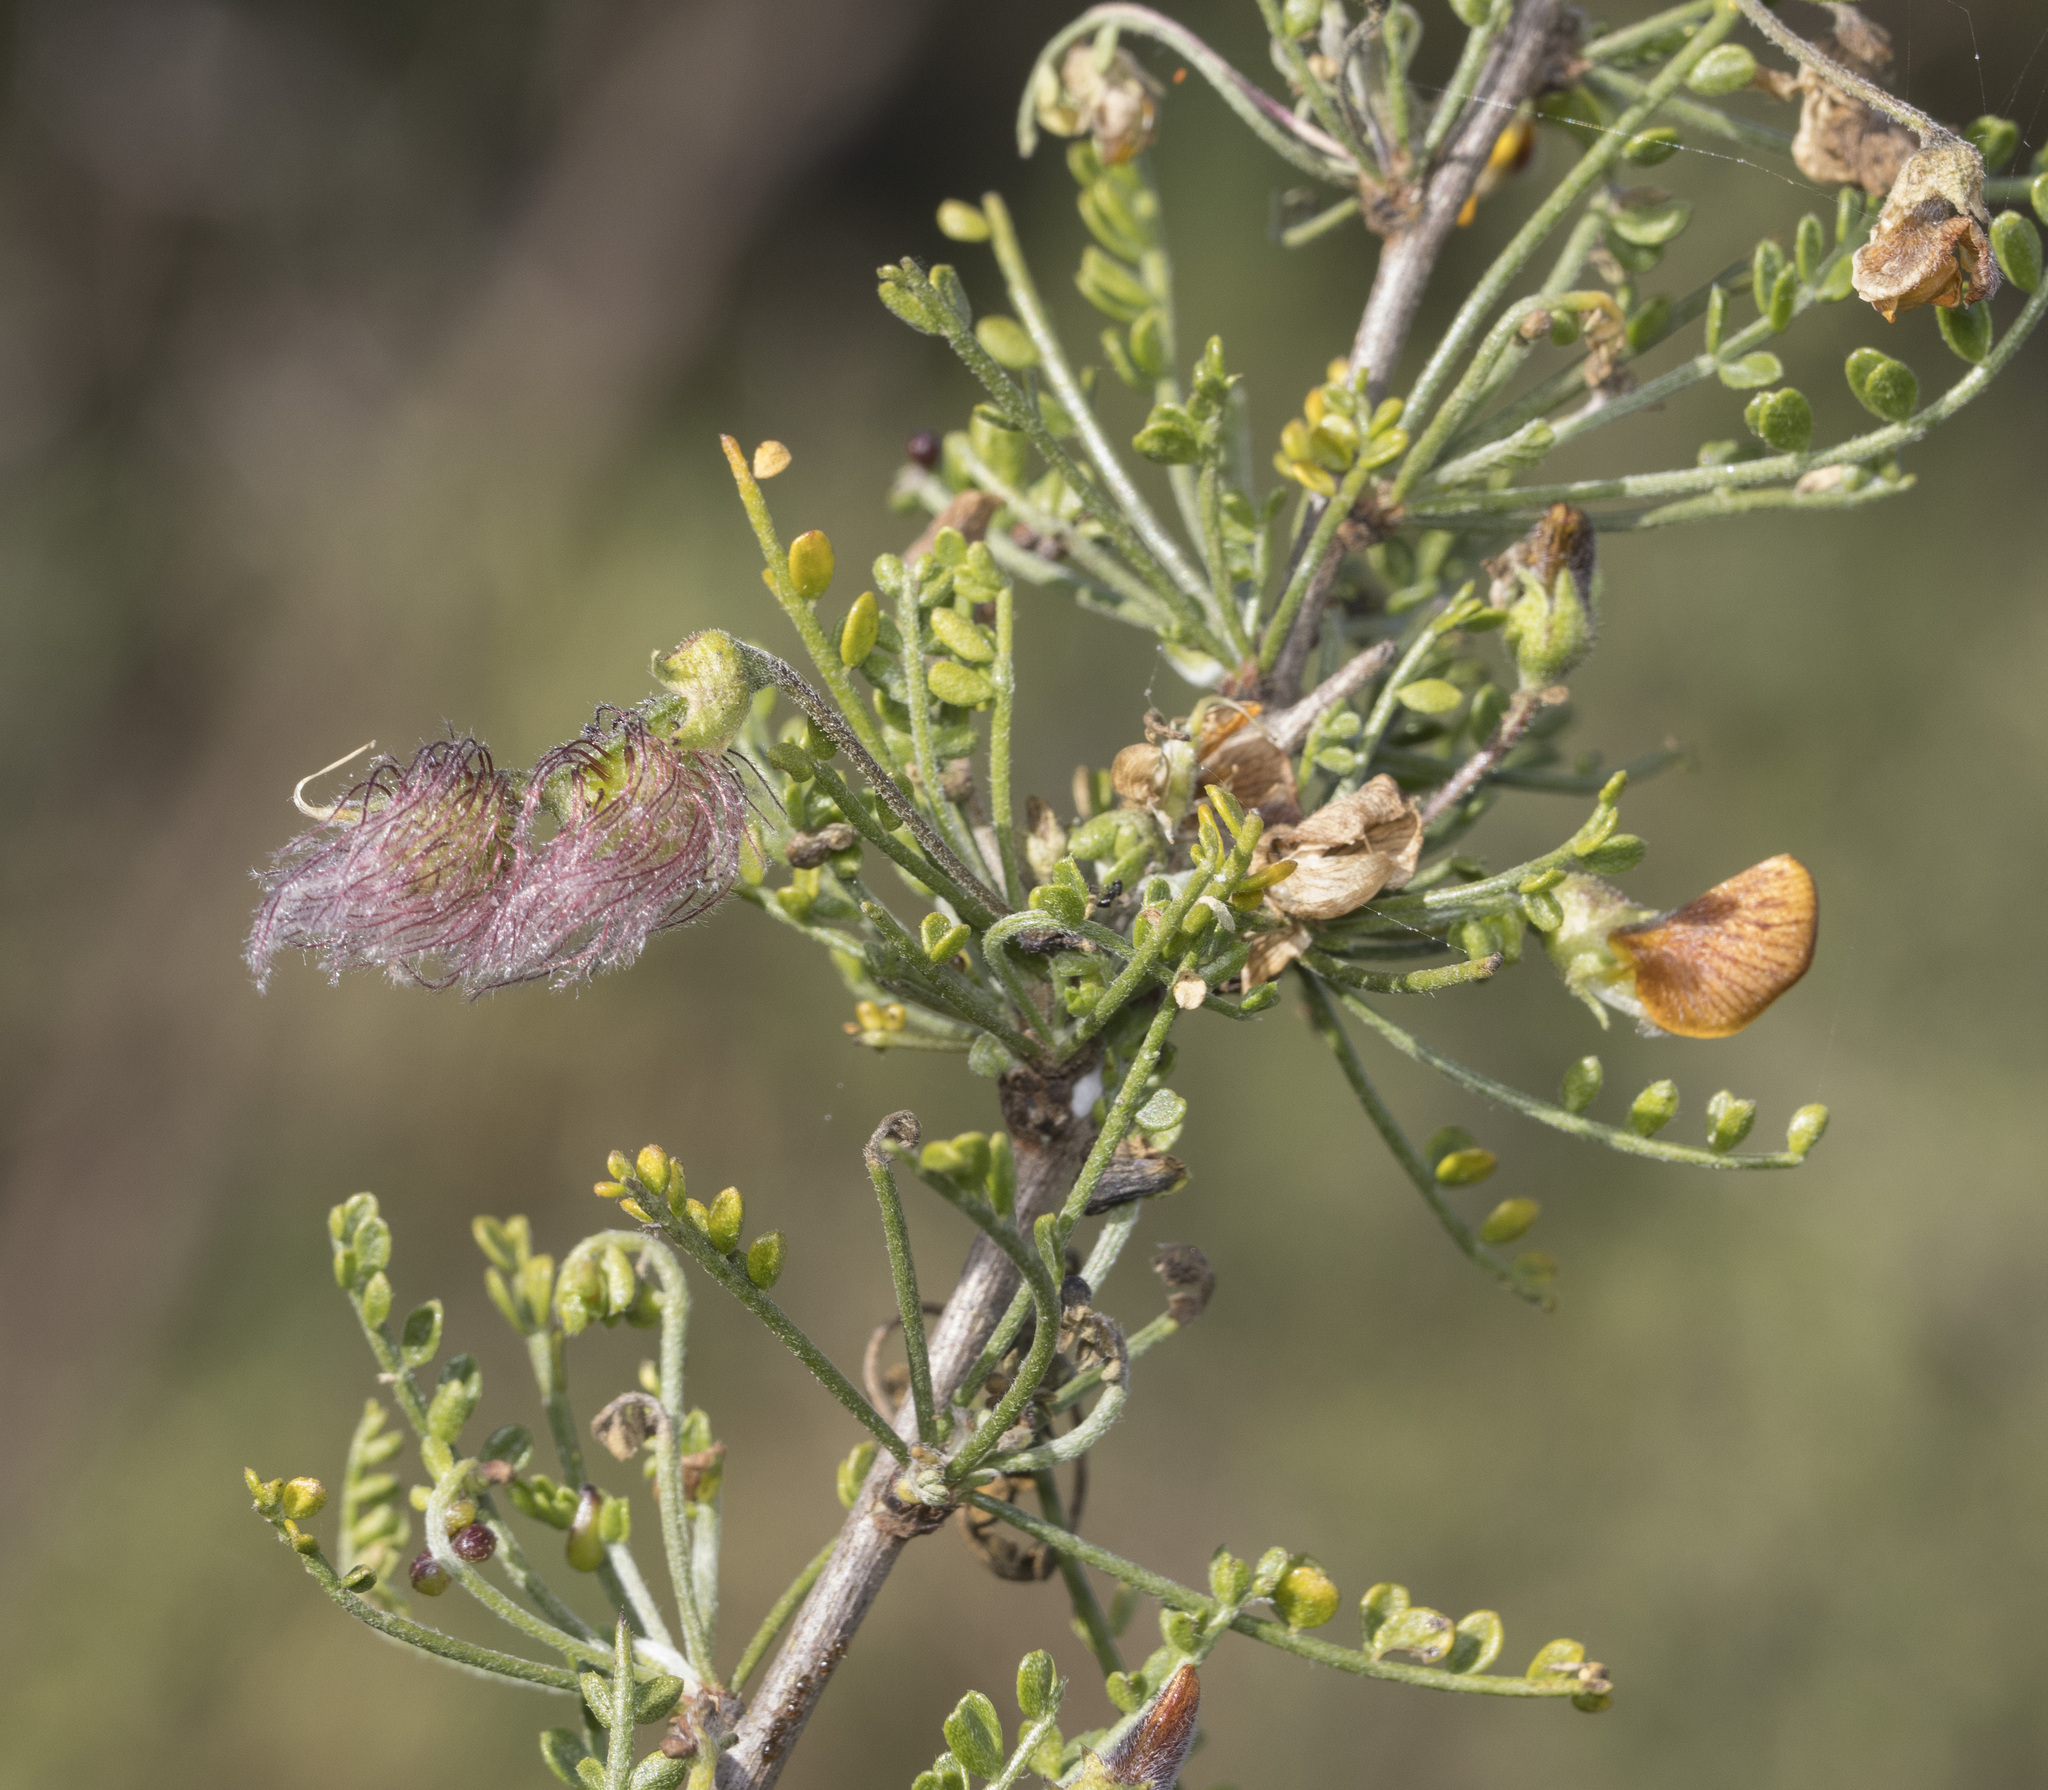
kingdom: Plantae
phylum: Tracheophyta
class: Magnoliopsida
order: Fabales
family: Fabaceae
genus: Adesmia
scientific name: Adesmia confusa
